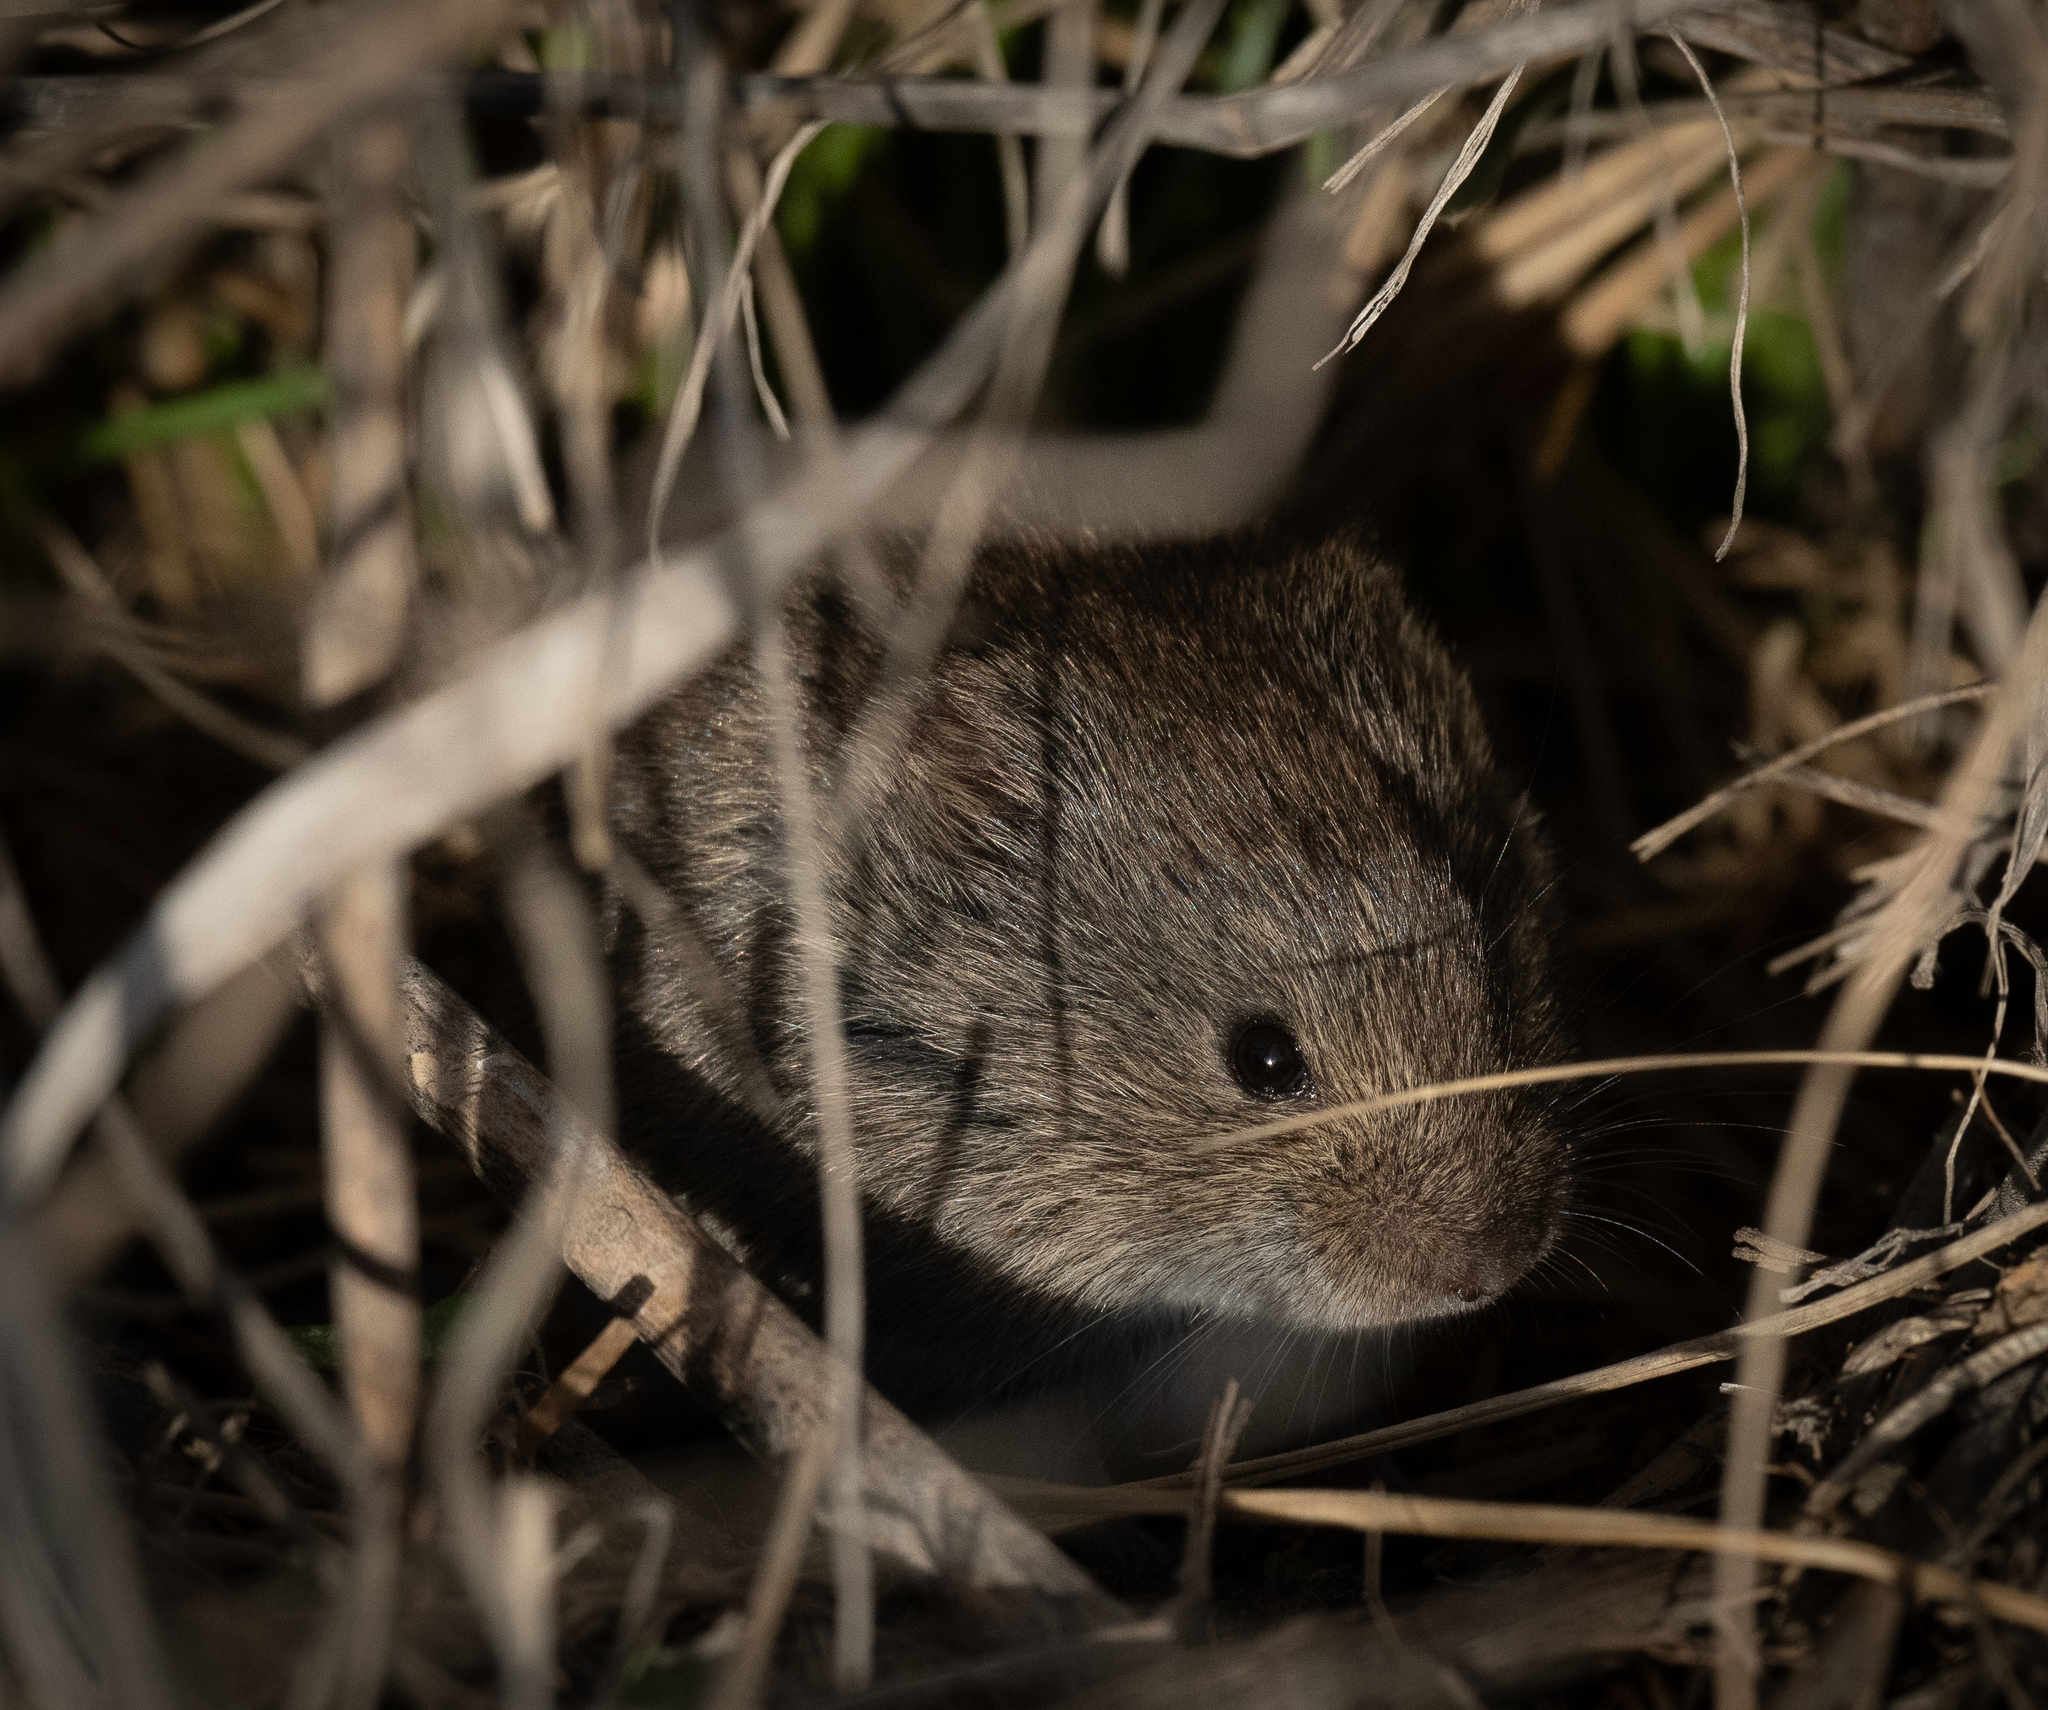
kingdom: Animalia
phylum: Chordata
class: Mammalia
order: Rodentia
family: Cricetidae
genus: Microtus
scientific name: Microtus pennsylvanicus
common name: Meadow vole
